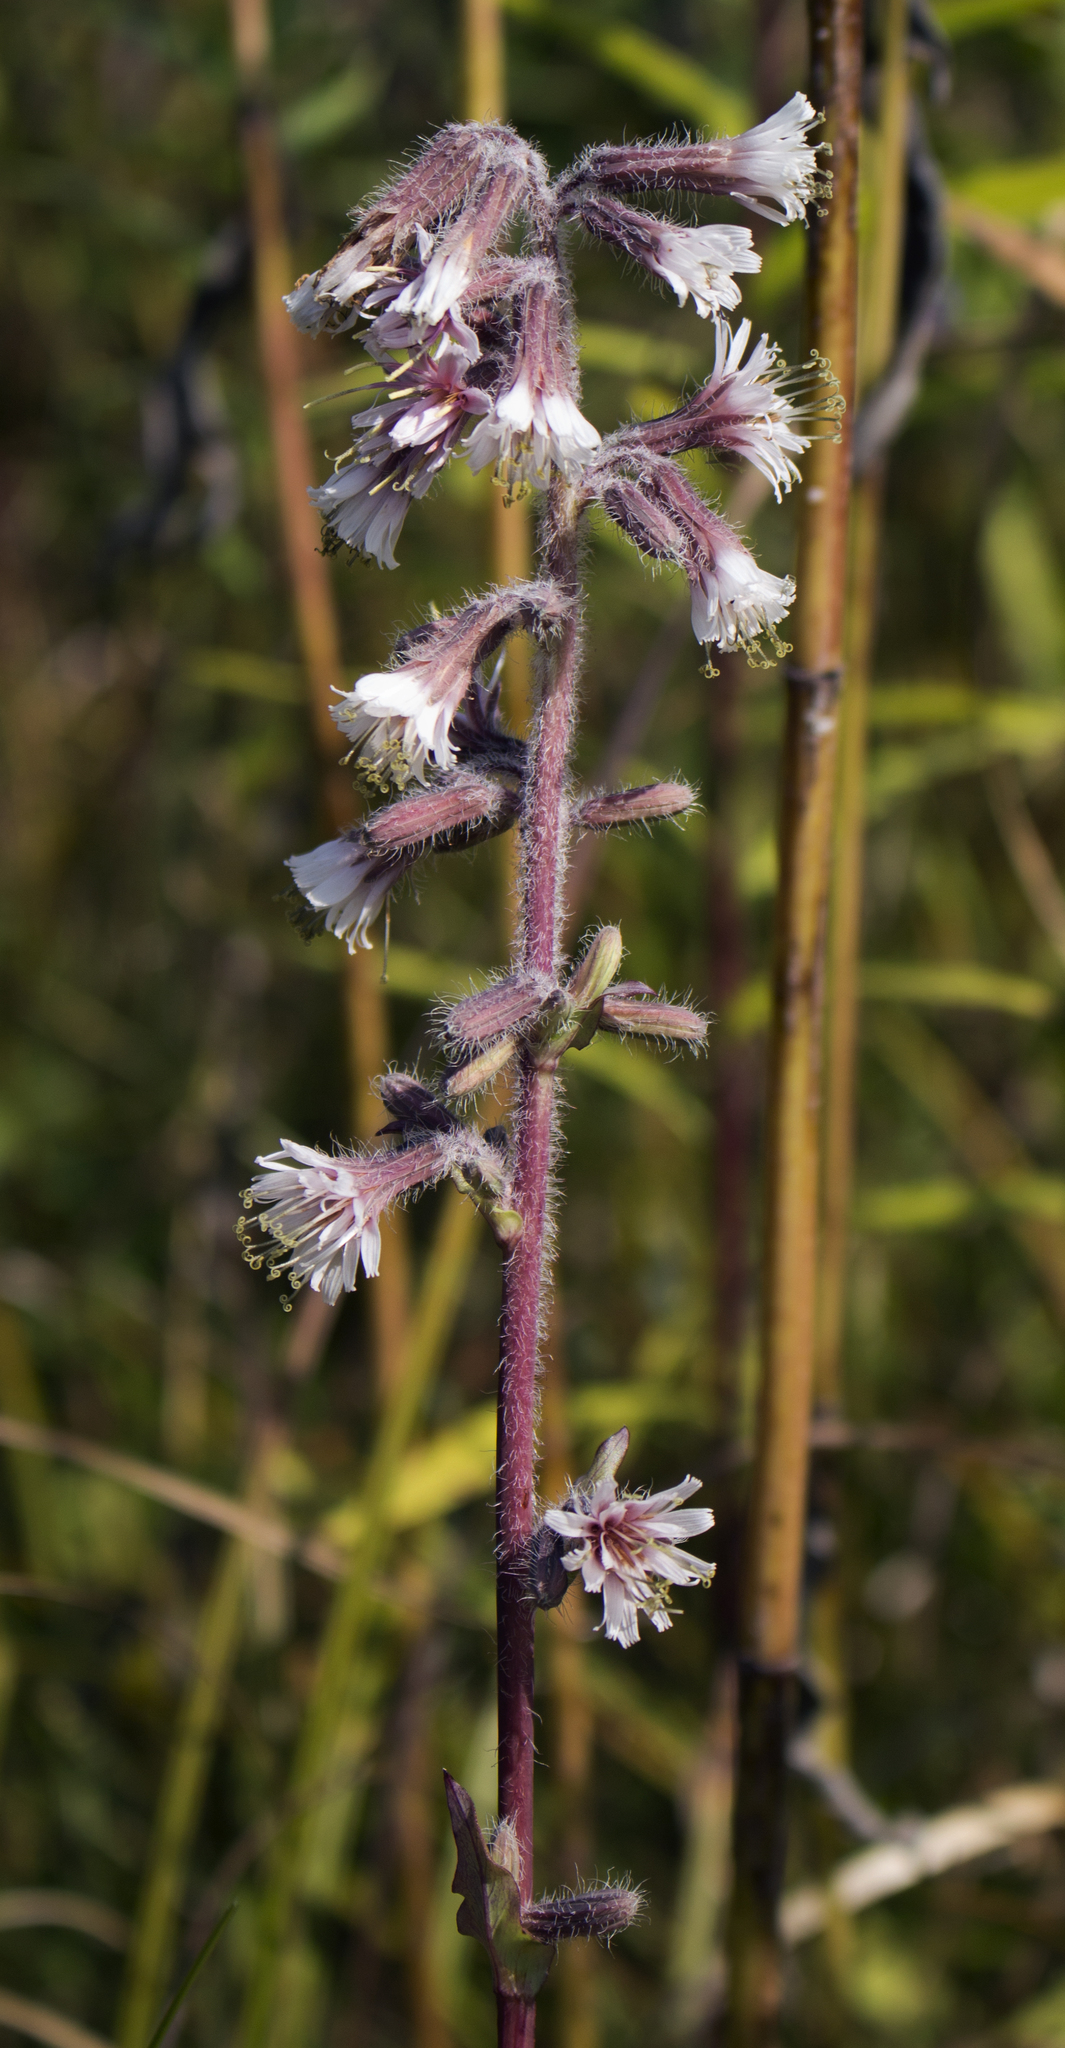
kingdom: Plantae
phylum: Tracheophyta
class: Magnoliopsida
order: Asterales
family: Asteraceae
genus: Nabalus
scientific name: Nabalus racemosus
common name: Glaucous white lettuce
